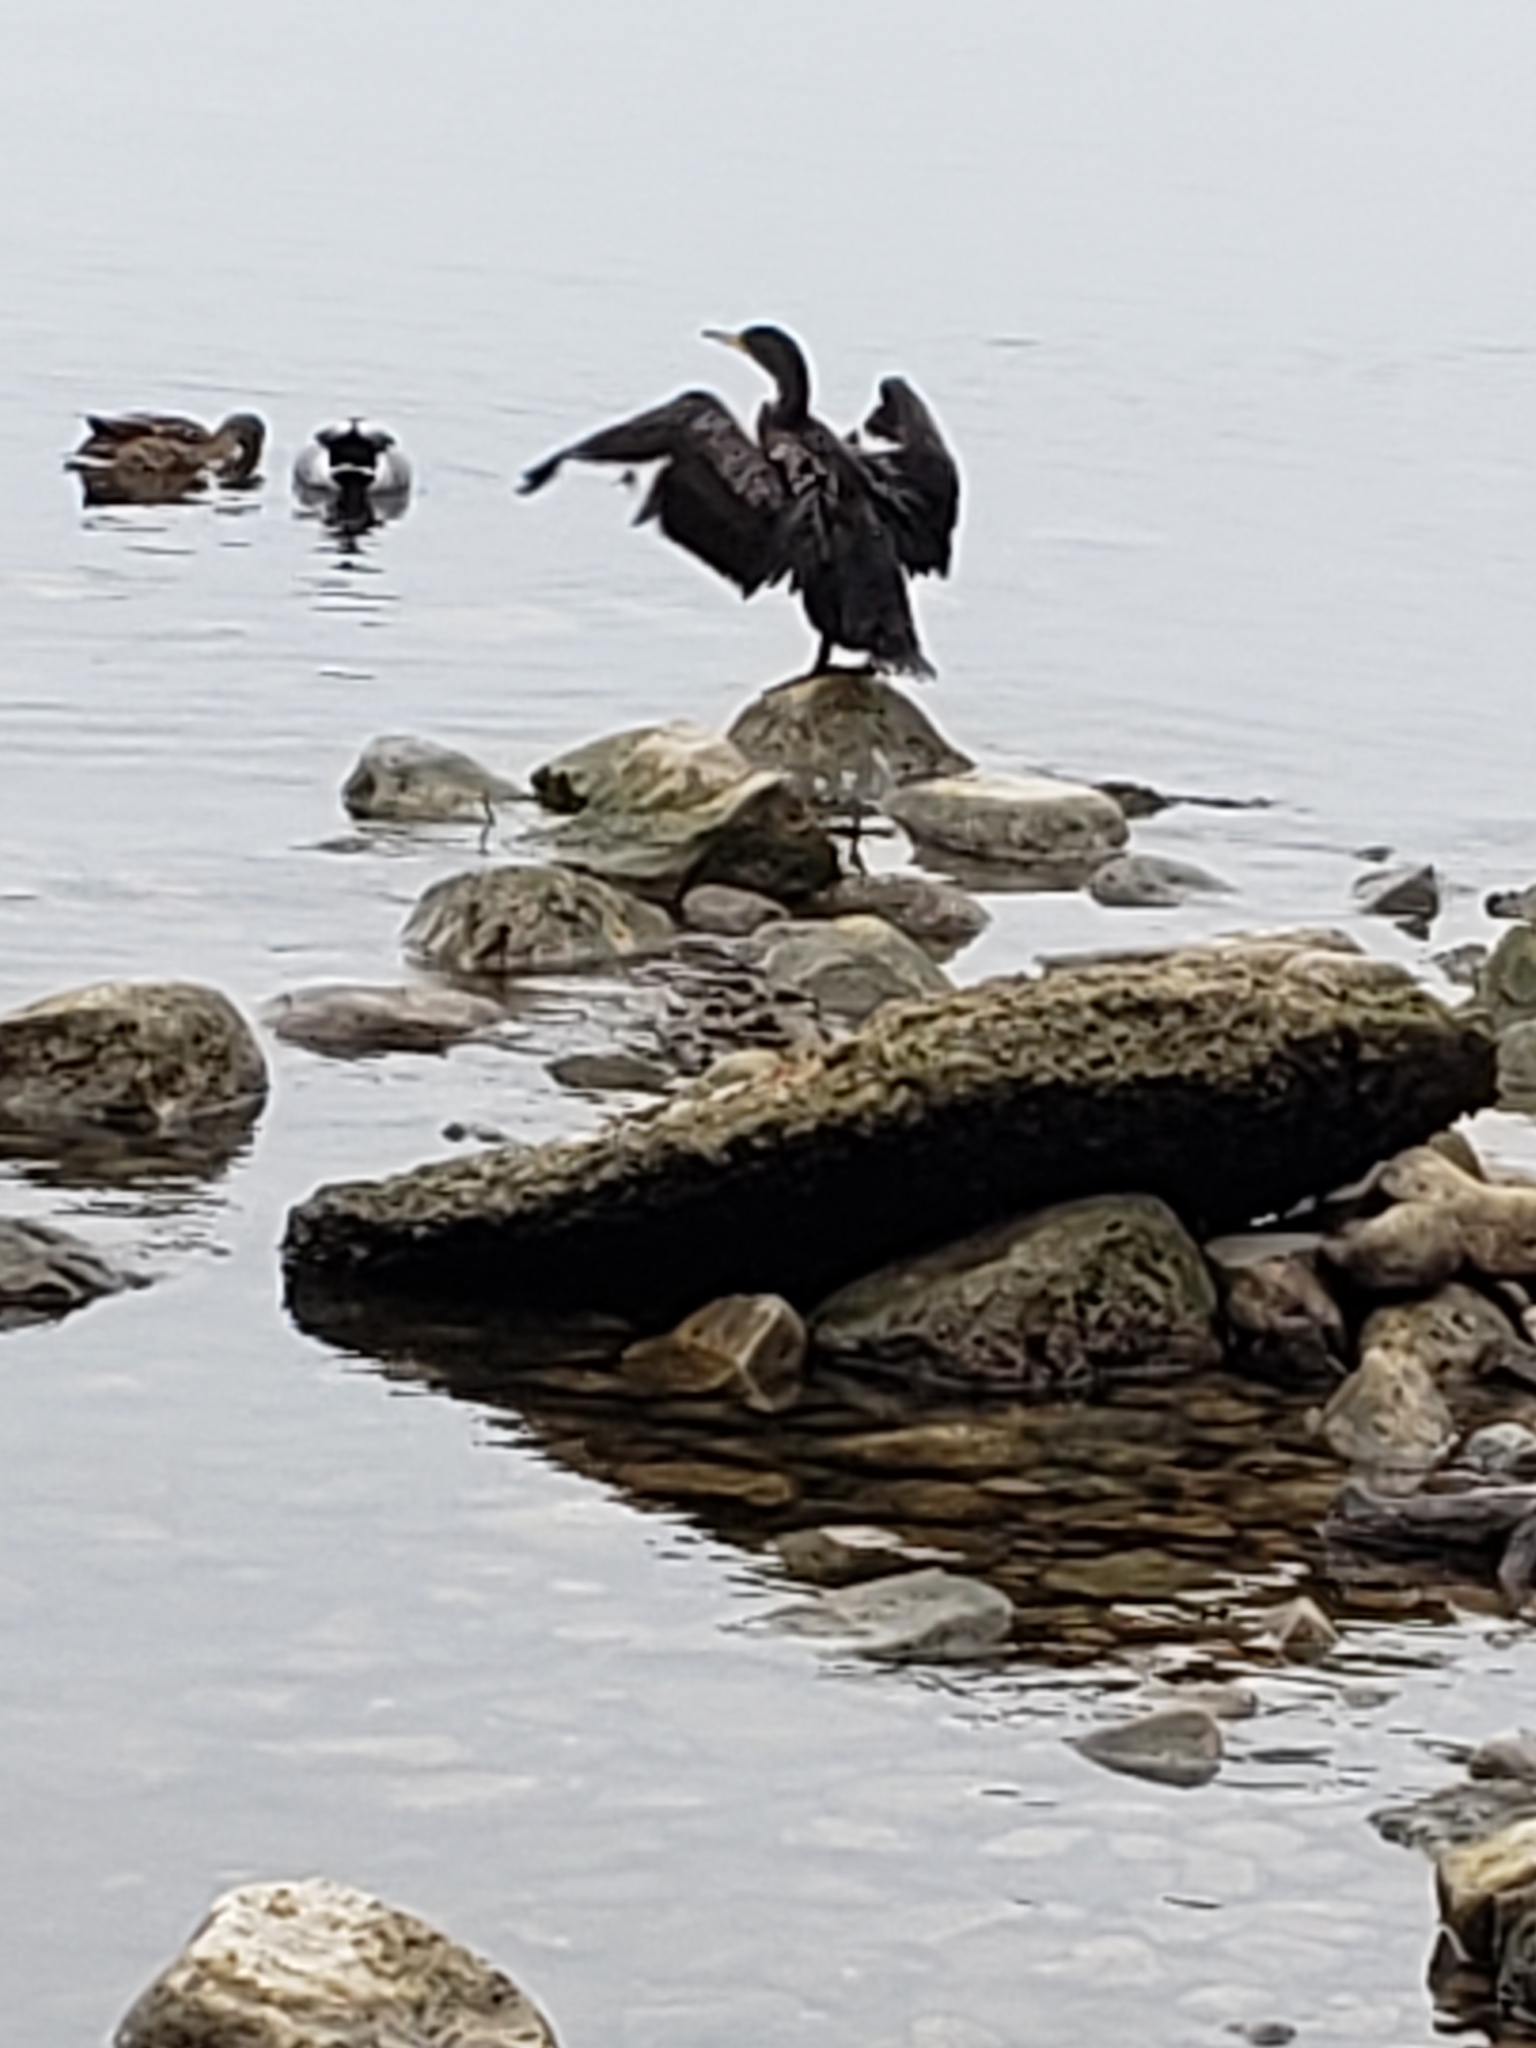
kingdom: Animalia
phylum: Chordata
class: Aves
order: Suliformes
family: Phalacrocoracidae
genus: Phalacrocorax
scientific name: Phalacrocorax auritus
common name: Double-crested cormorant
